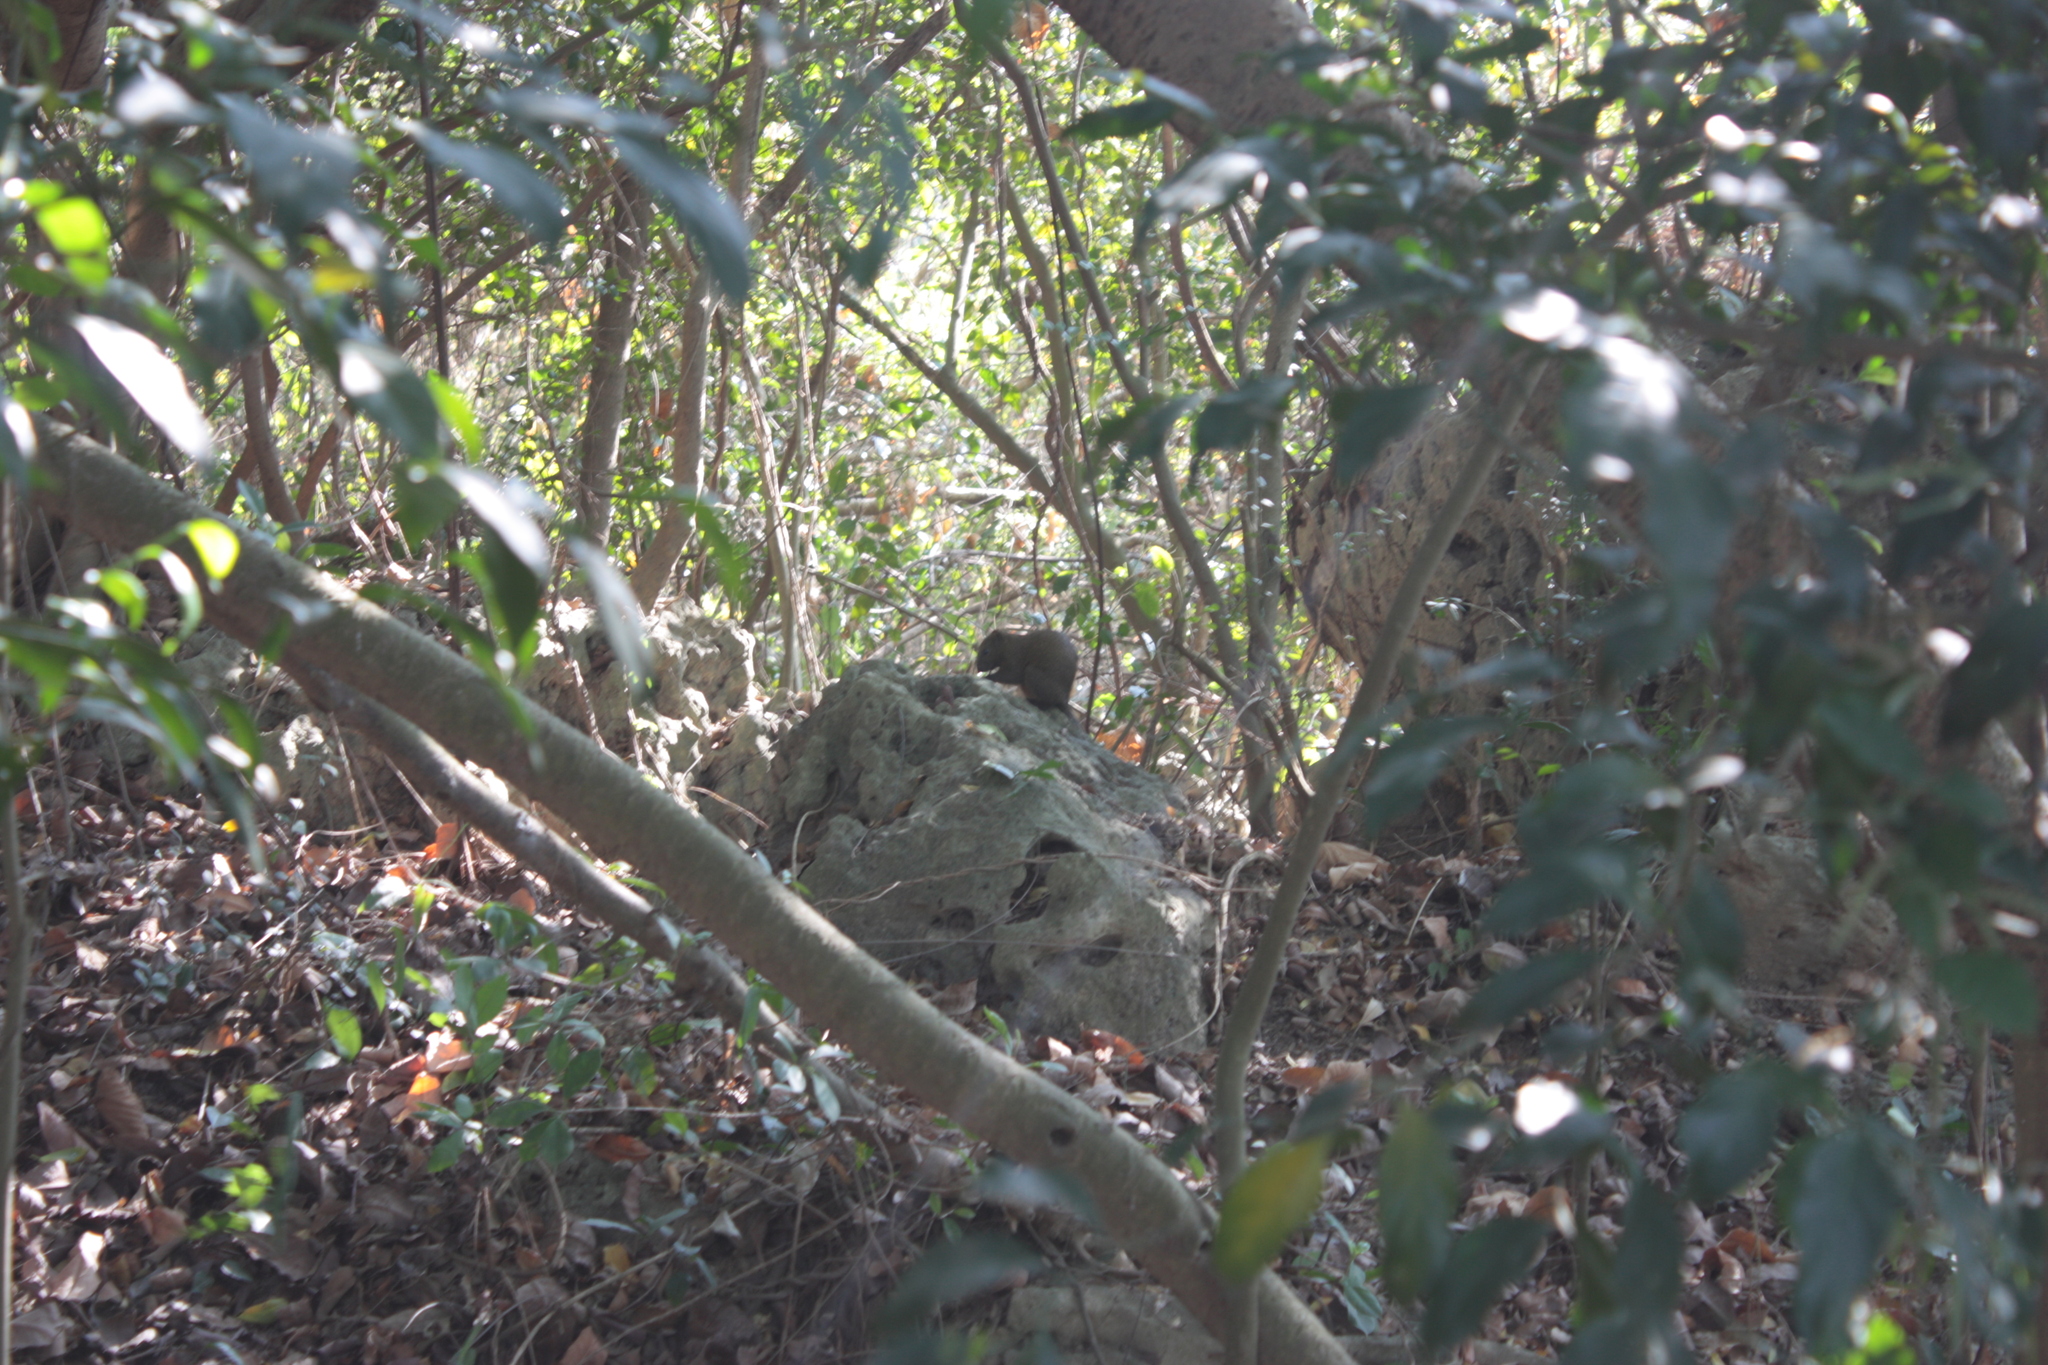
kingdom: Animalia
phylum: Chordata
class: Mammalia
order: Rodentia
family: Sciuridae
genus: Callosciurus
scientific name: Callosciurus erythraeus
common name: Pallas's squirrel
